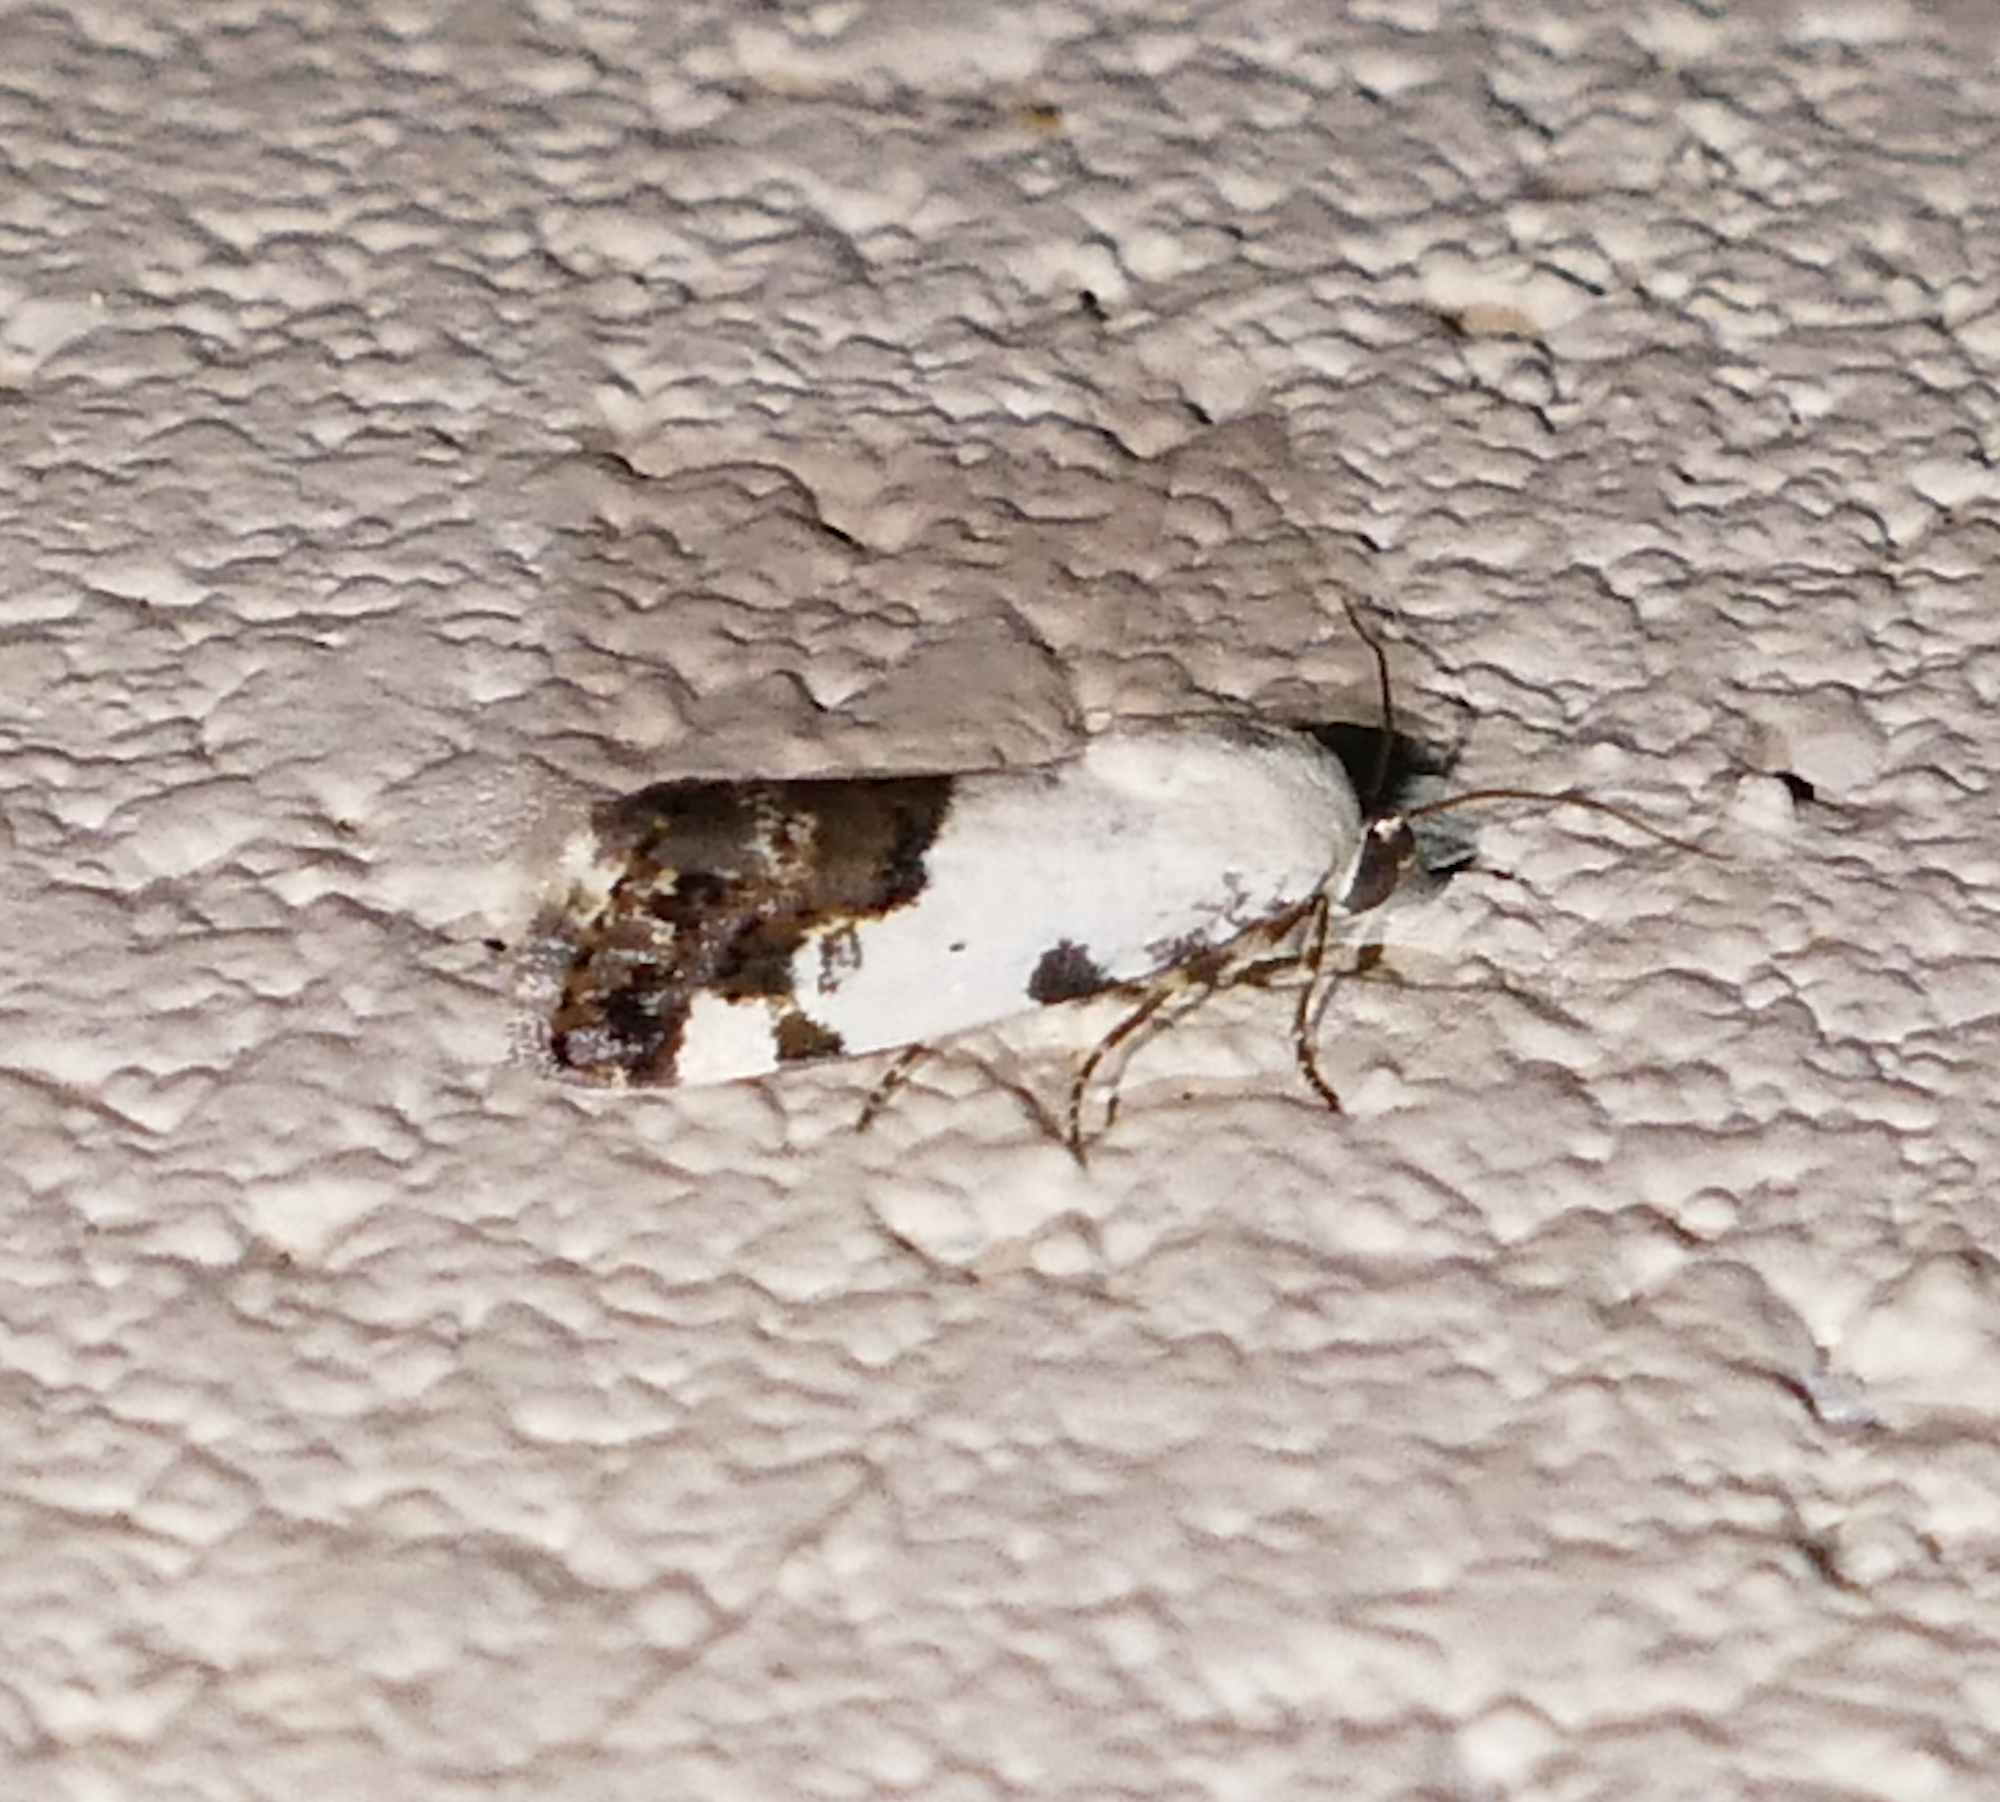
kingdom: Animalia
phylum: Arthropoda
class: Insecta
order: Lepidoptera
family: Noctuidae
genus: Acontia
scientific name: Acontia aprica
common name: Nun
